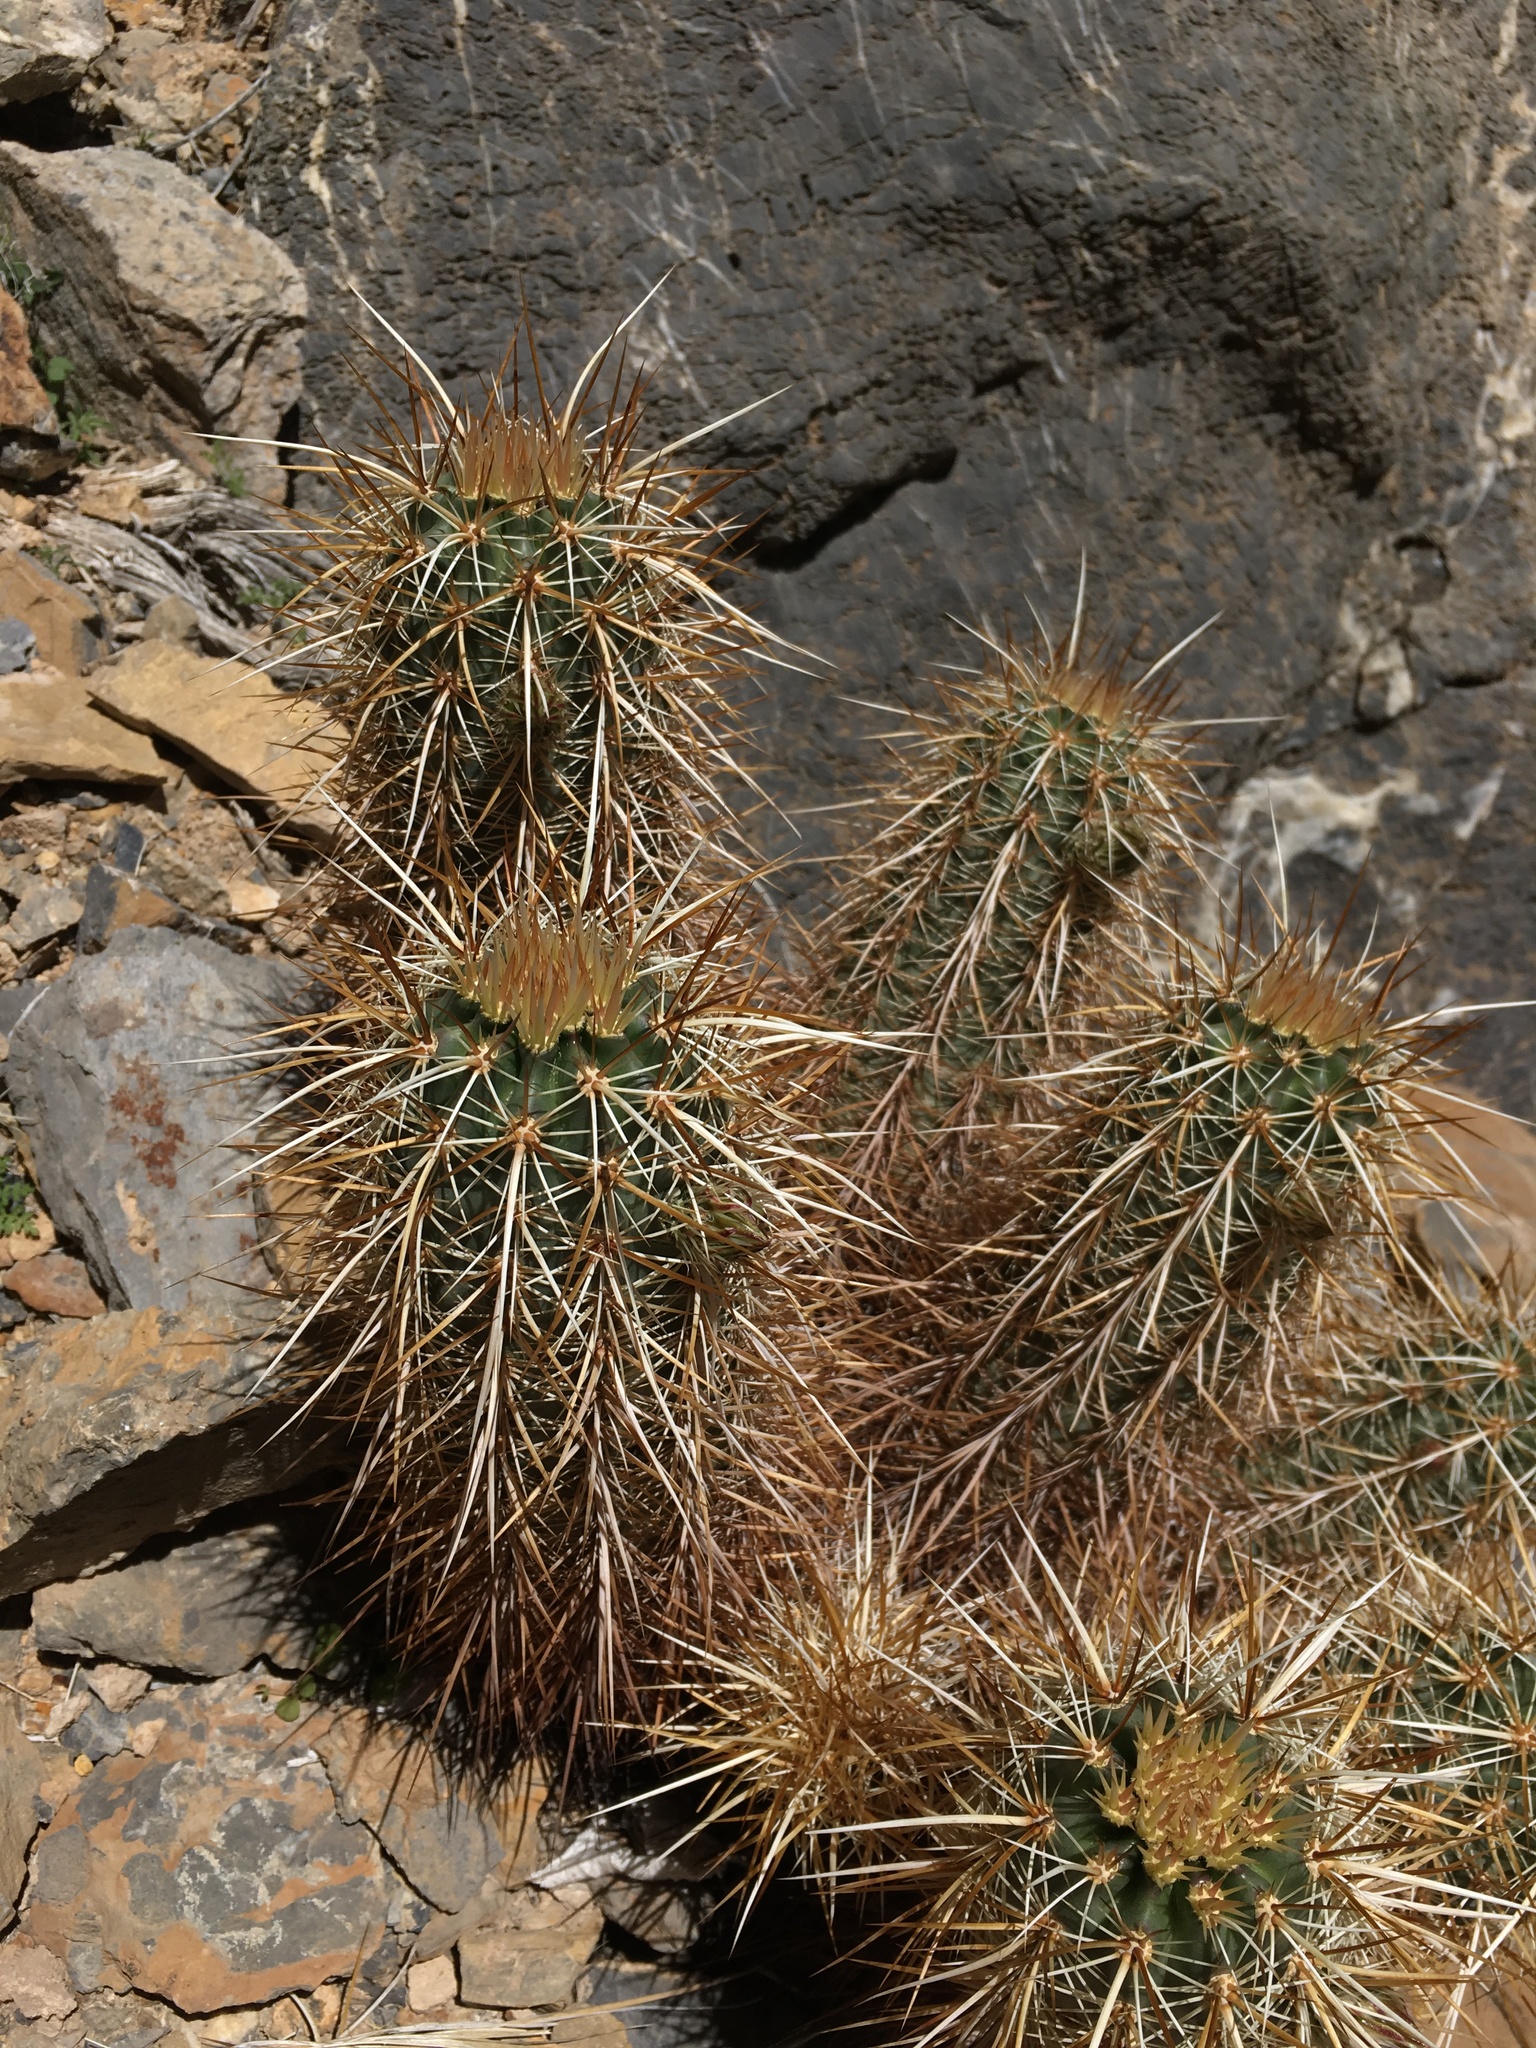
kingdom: Plantae
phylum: Tracheophyta
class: Magnoliopsida
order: Caryophyllales
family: Cactaceae
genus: Echinocereus
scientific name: Echinocereus engelmannii
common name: Engelmann's hedgehog cactus
